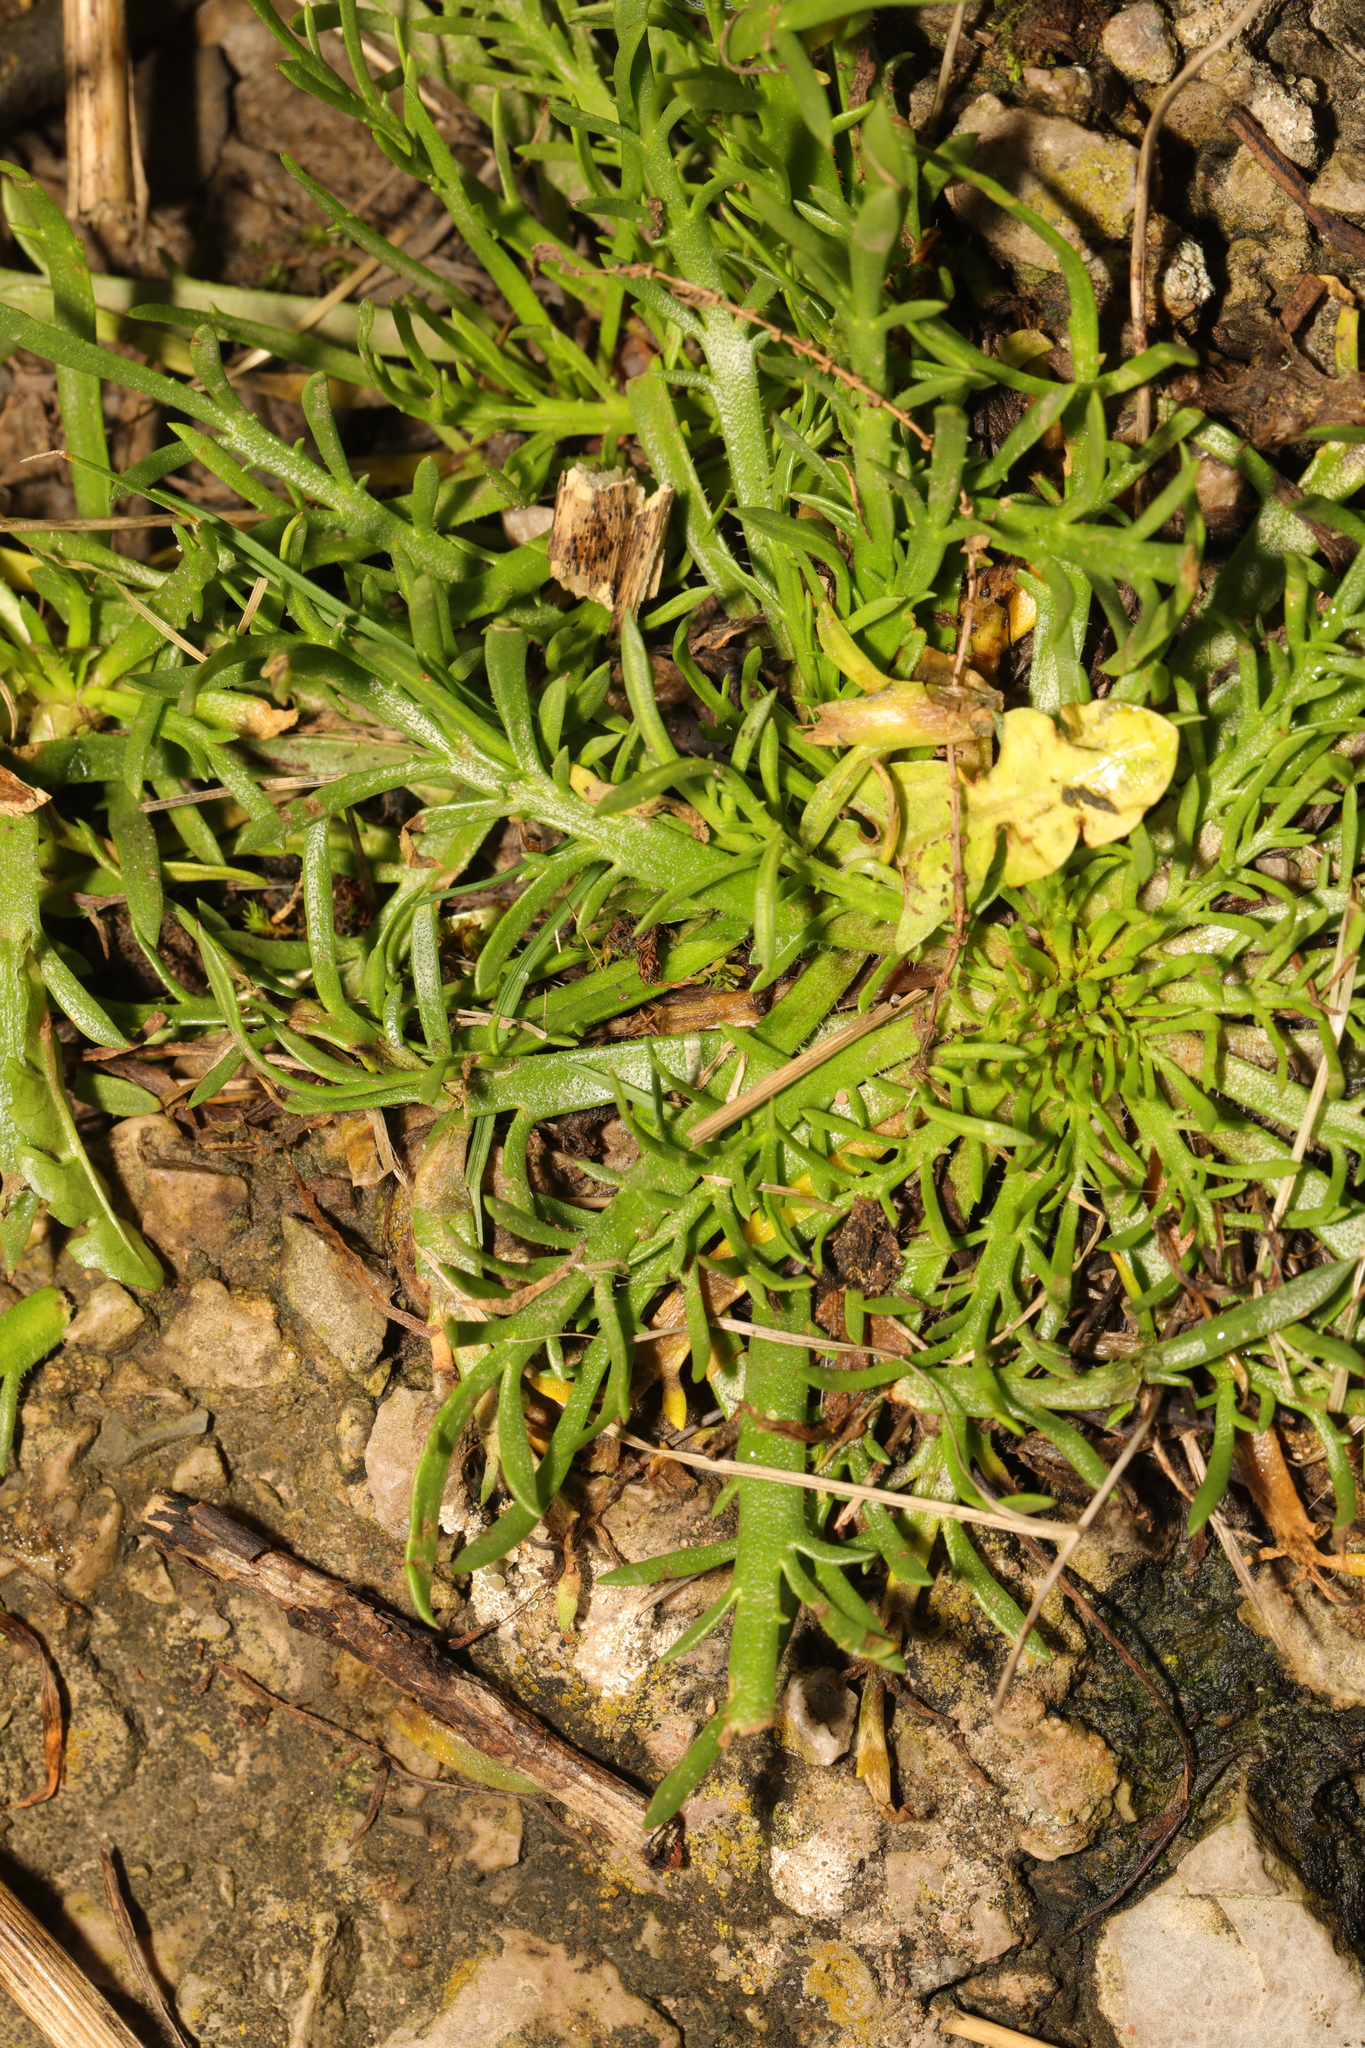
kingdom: Plantae
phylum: Tracheophyta
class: Magnoliopsida
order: Lamiales
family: Plantaginaceae
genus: Plantago
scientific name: Plantago coronopus
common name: Buck's-horn plantain
